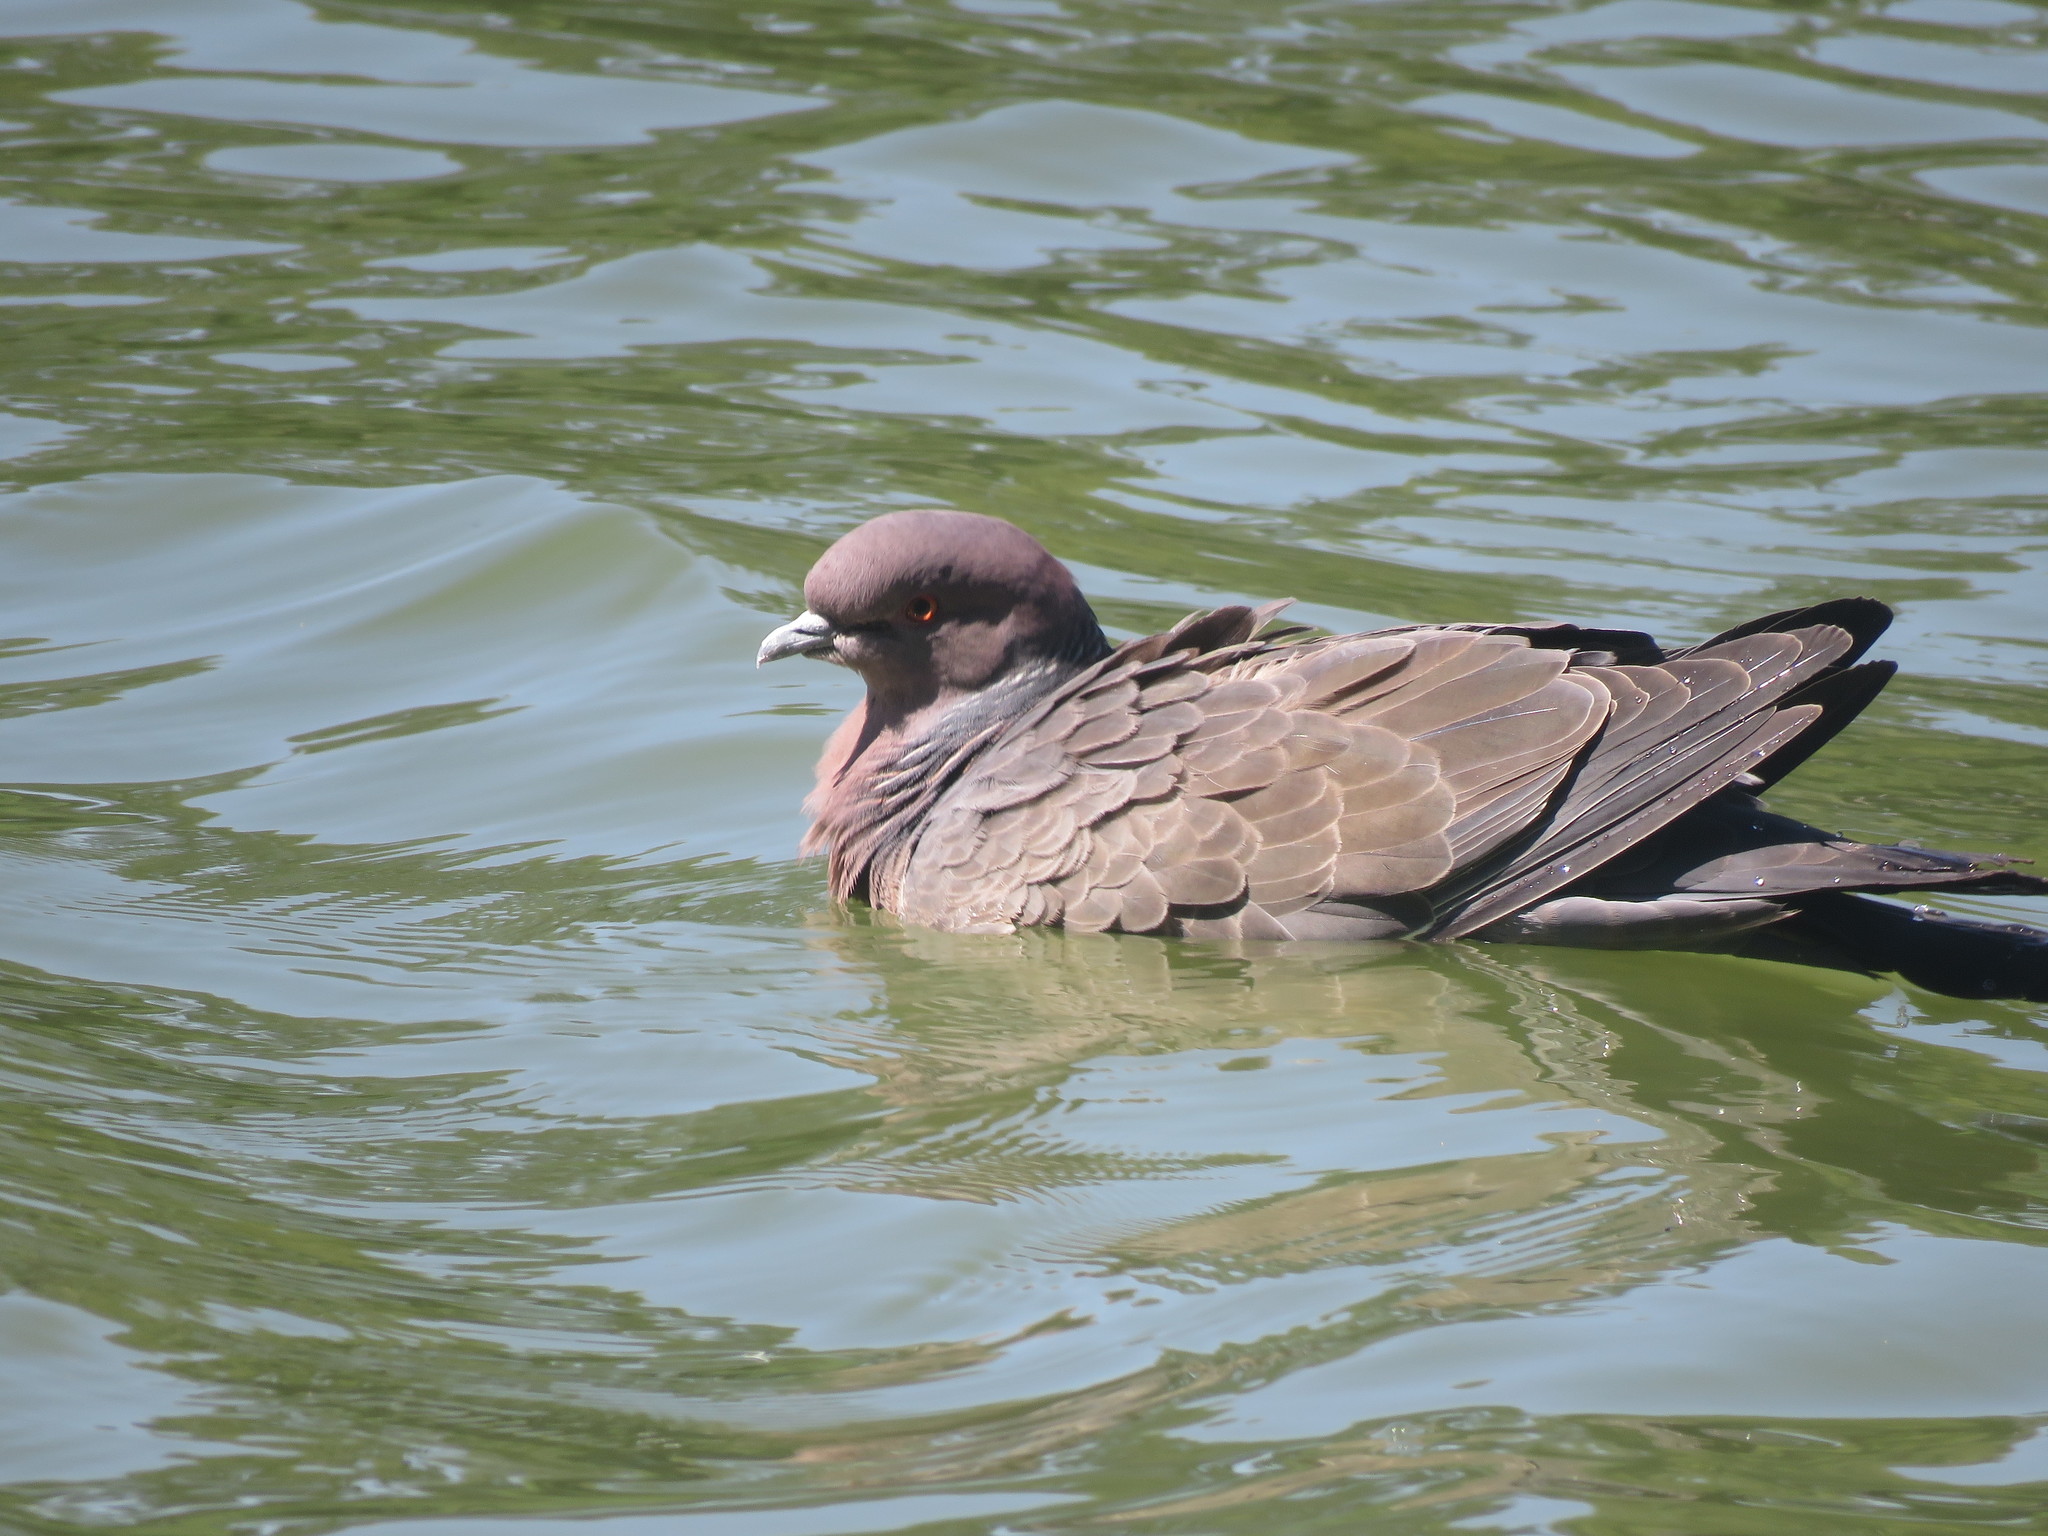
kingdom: Animalia
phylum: Chordata
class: Aves
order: Columbiformes
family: Columbidae
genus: Patagioenas
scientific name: Patagioenas picazuro
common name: Picazuro pigeon
